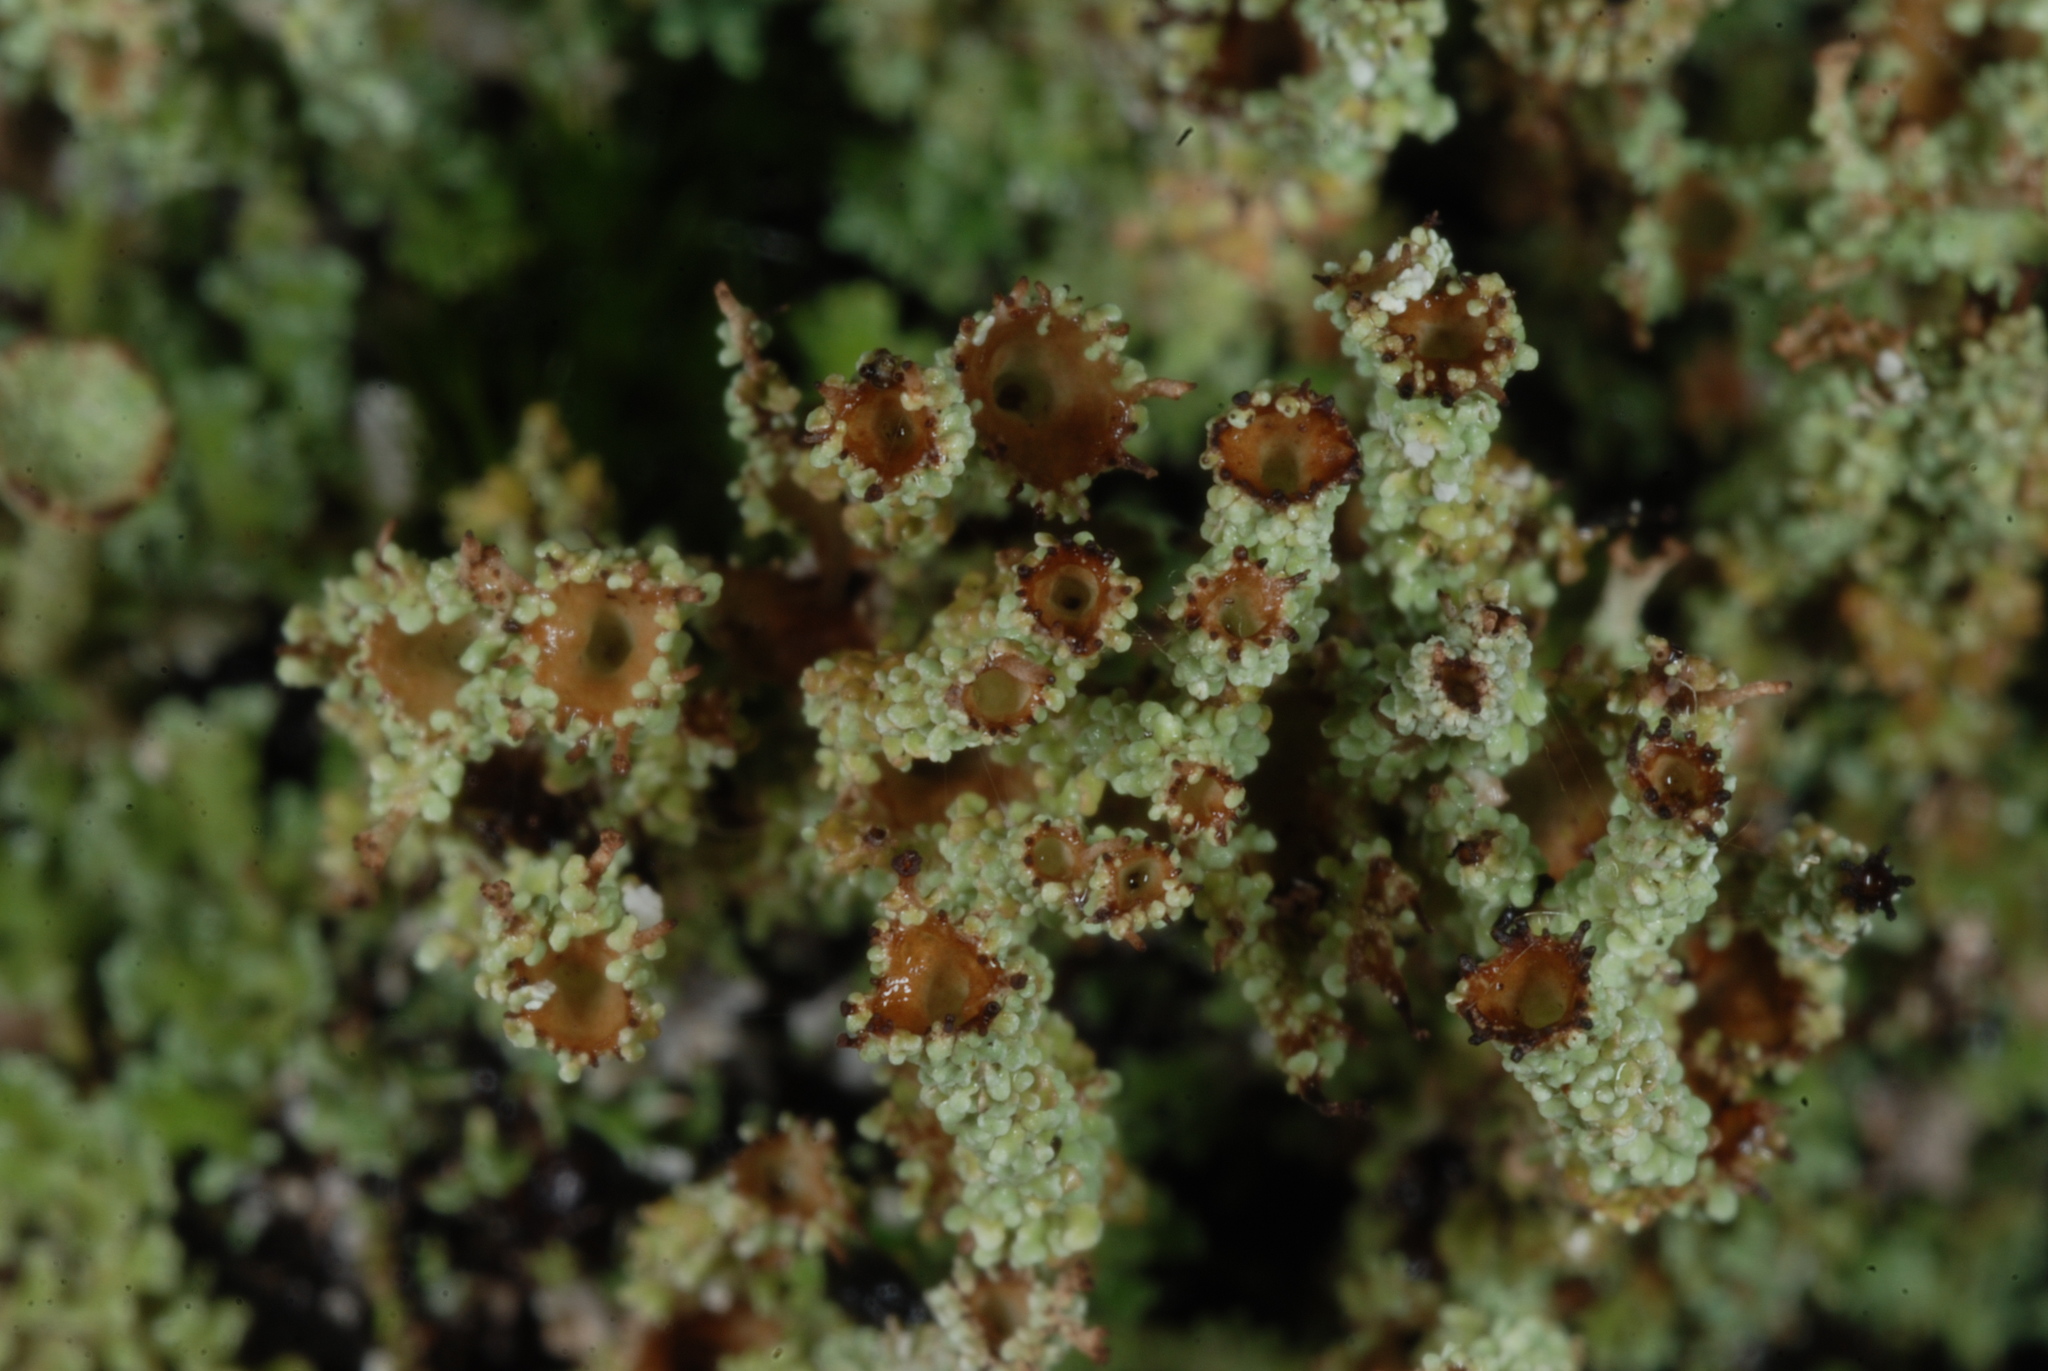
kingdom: Fungi
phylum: Ascomycota
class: Lecanoromycetes
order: Lecanorales
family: Cladoniaceae
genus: Cladonia
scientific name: Cladonia atlantica
